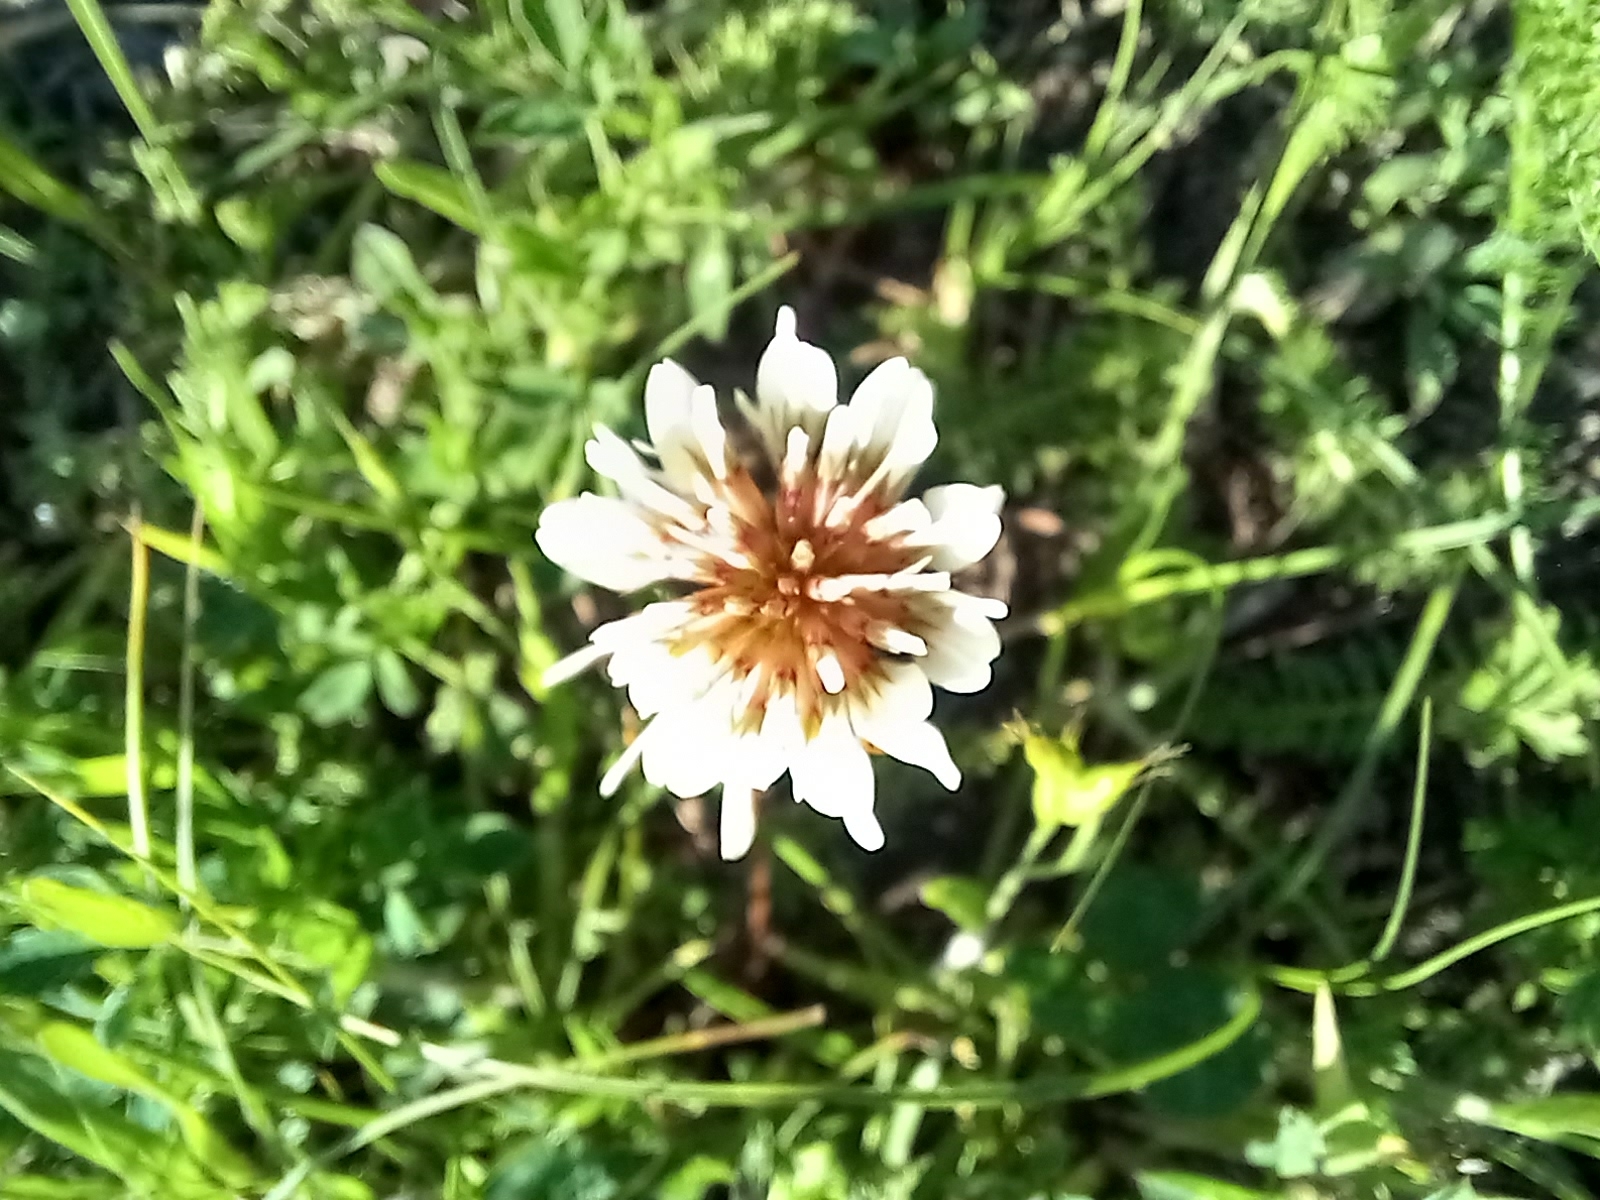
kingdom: Plantae
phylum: Tracheophyta
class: Magnoliopsida
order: Fabales
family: Fabaceae
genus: Trifolium
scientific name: Trifolium repens
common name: White clover
